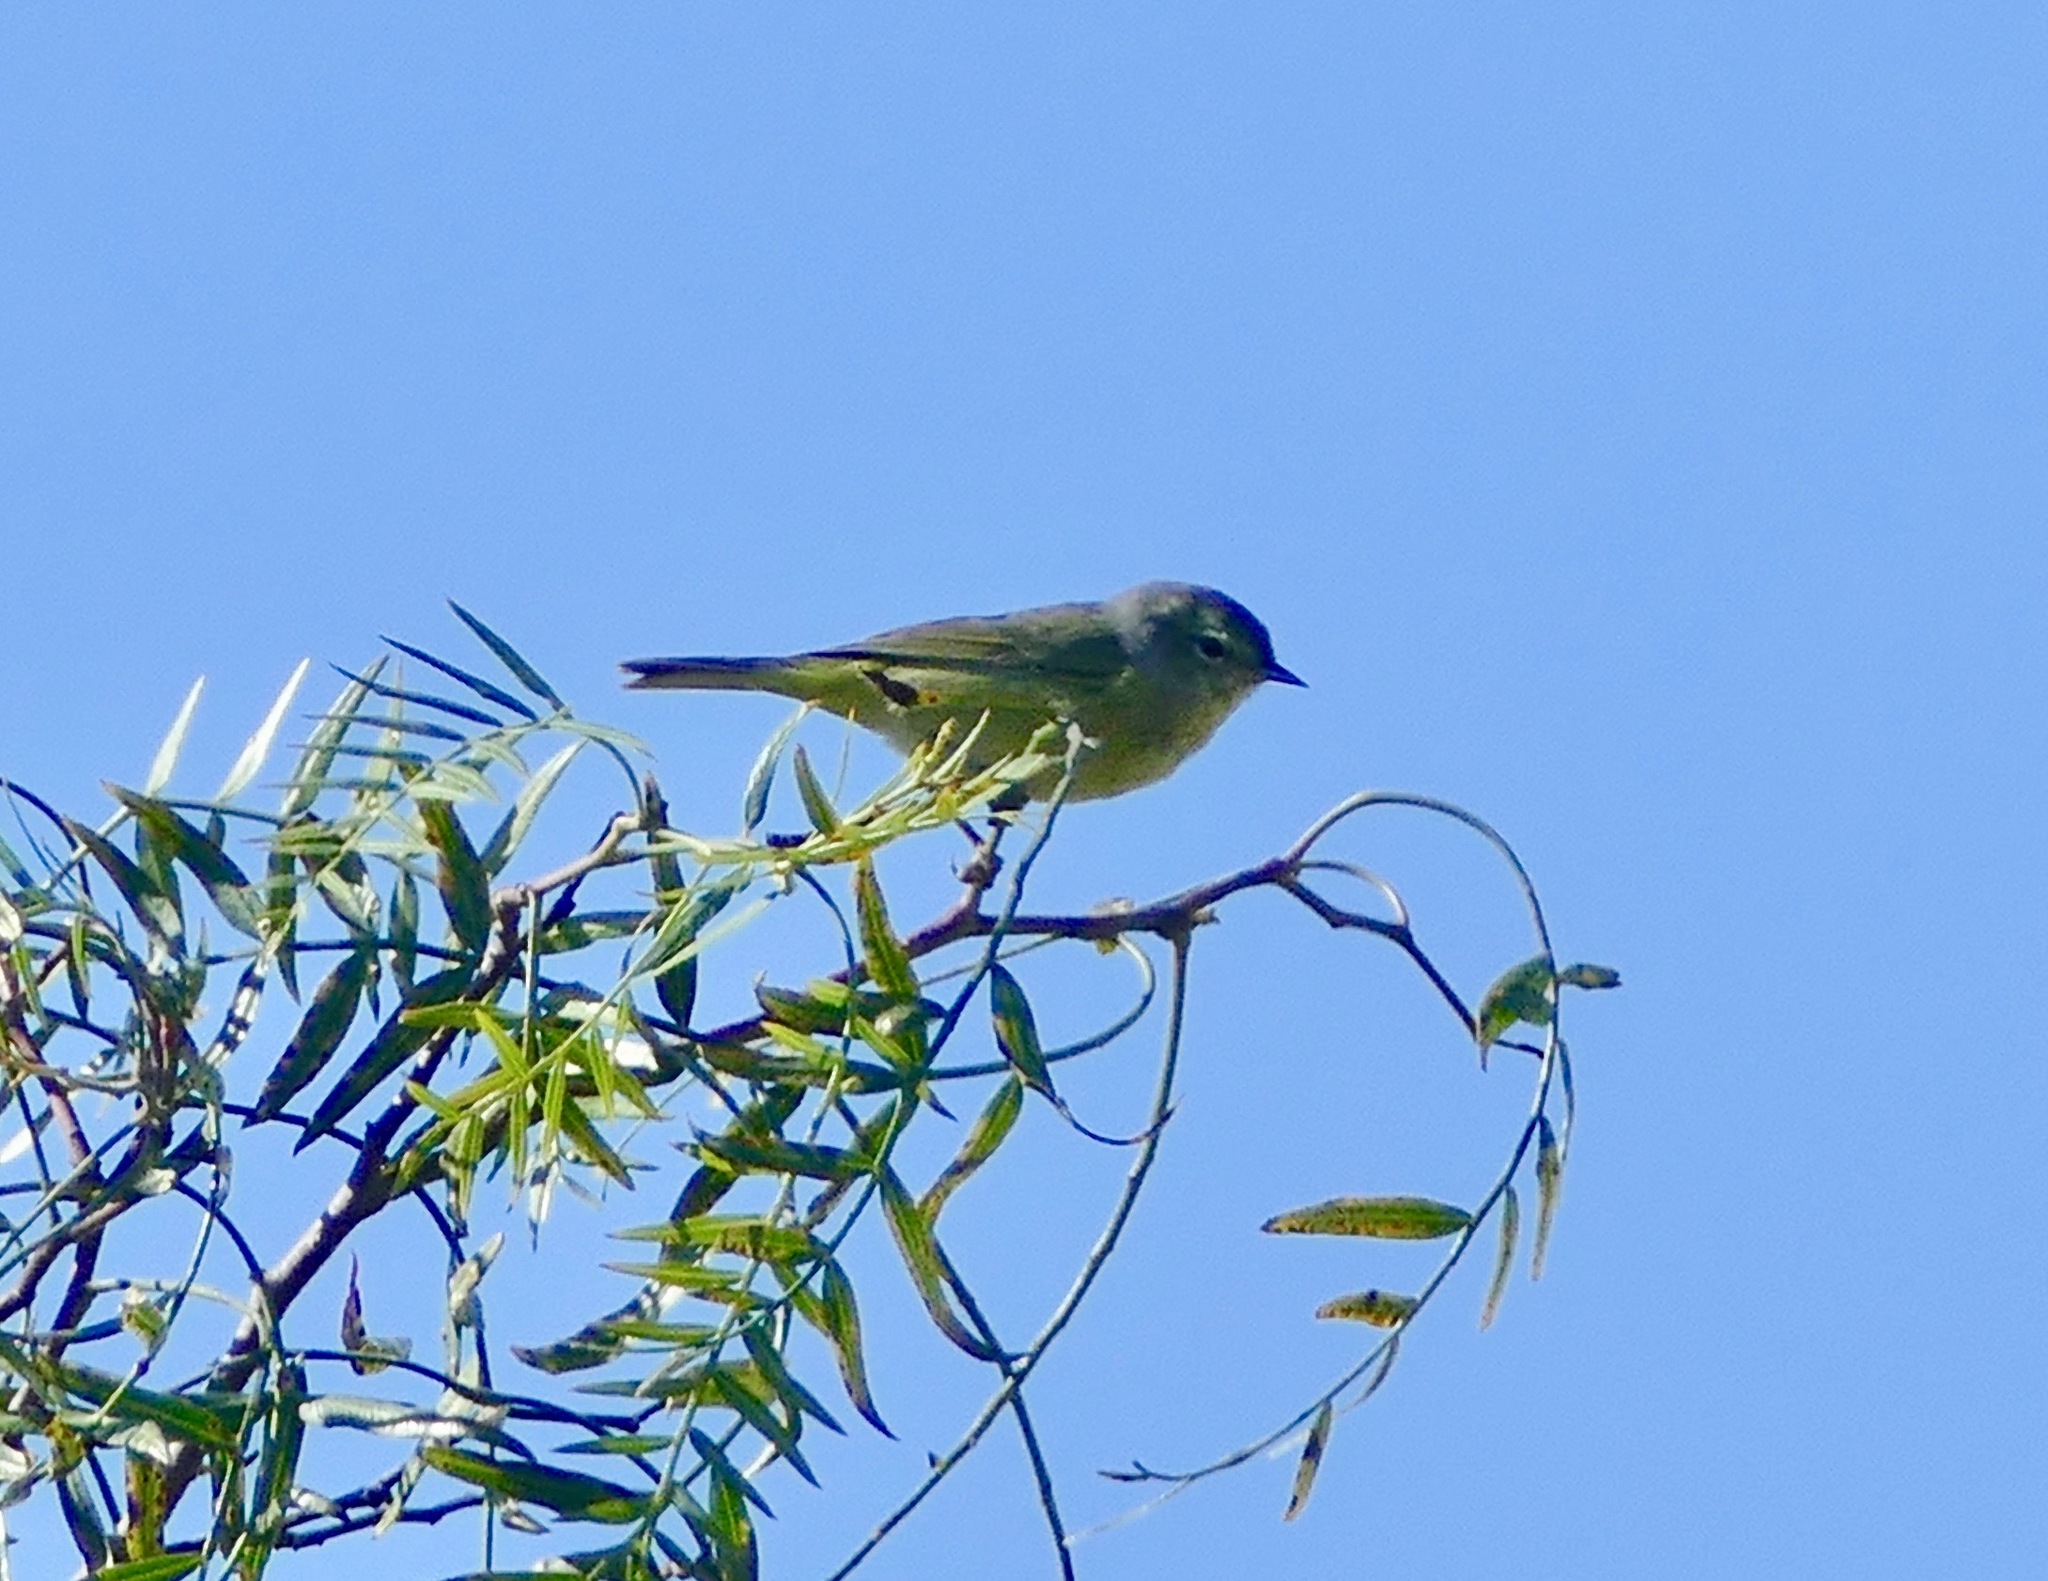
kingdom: Animalia
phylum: Chordata
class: Aves
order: Passeriformes
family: Parulidae
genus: Leiothlypis
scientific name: Leiothlypis celata
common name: Orange-crowned warbler
